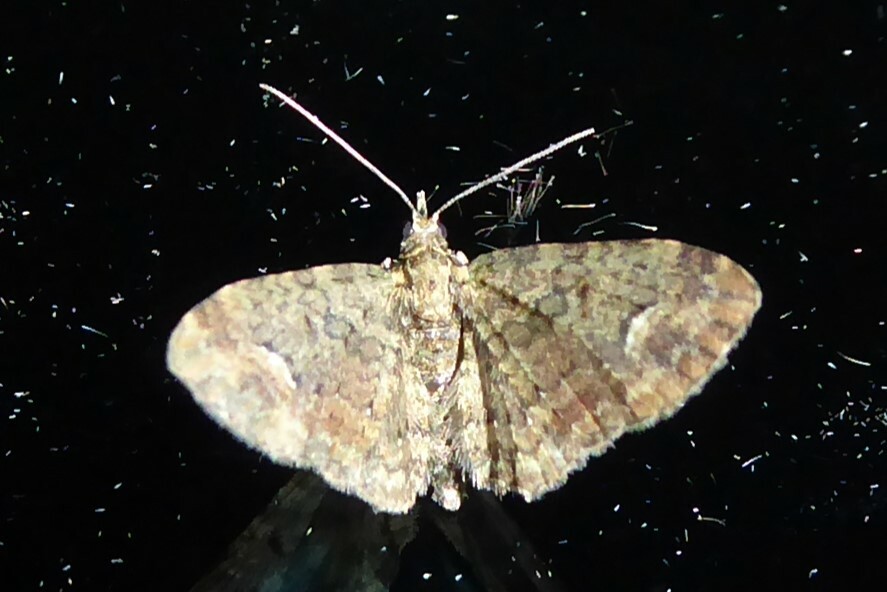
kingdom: Animalia
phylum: Arthropoda
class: Insecta
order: Lepidoptera
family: Geometridae
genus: Pasiphilodes
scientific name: Pasiphilodes testulata
